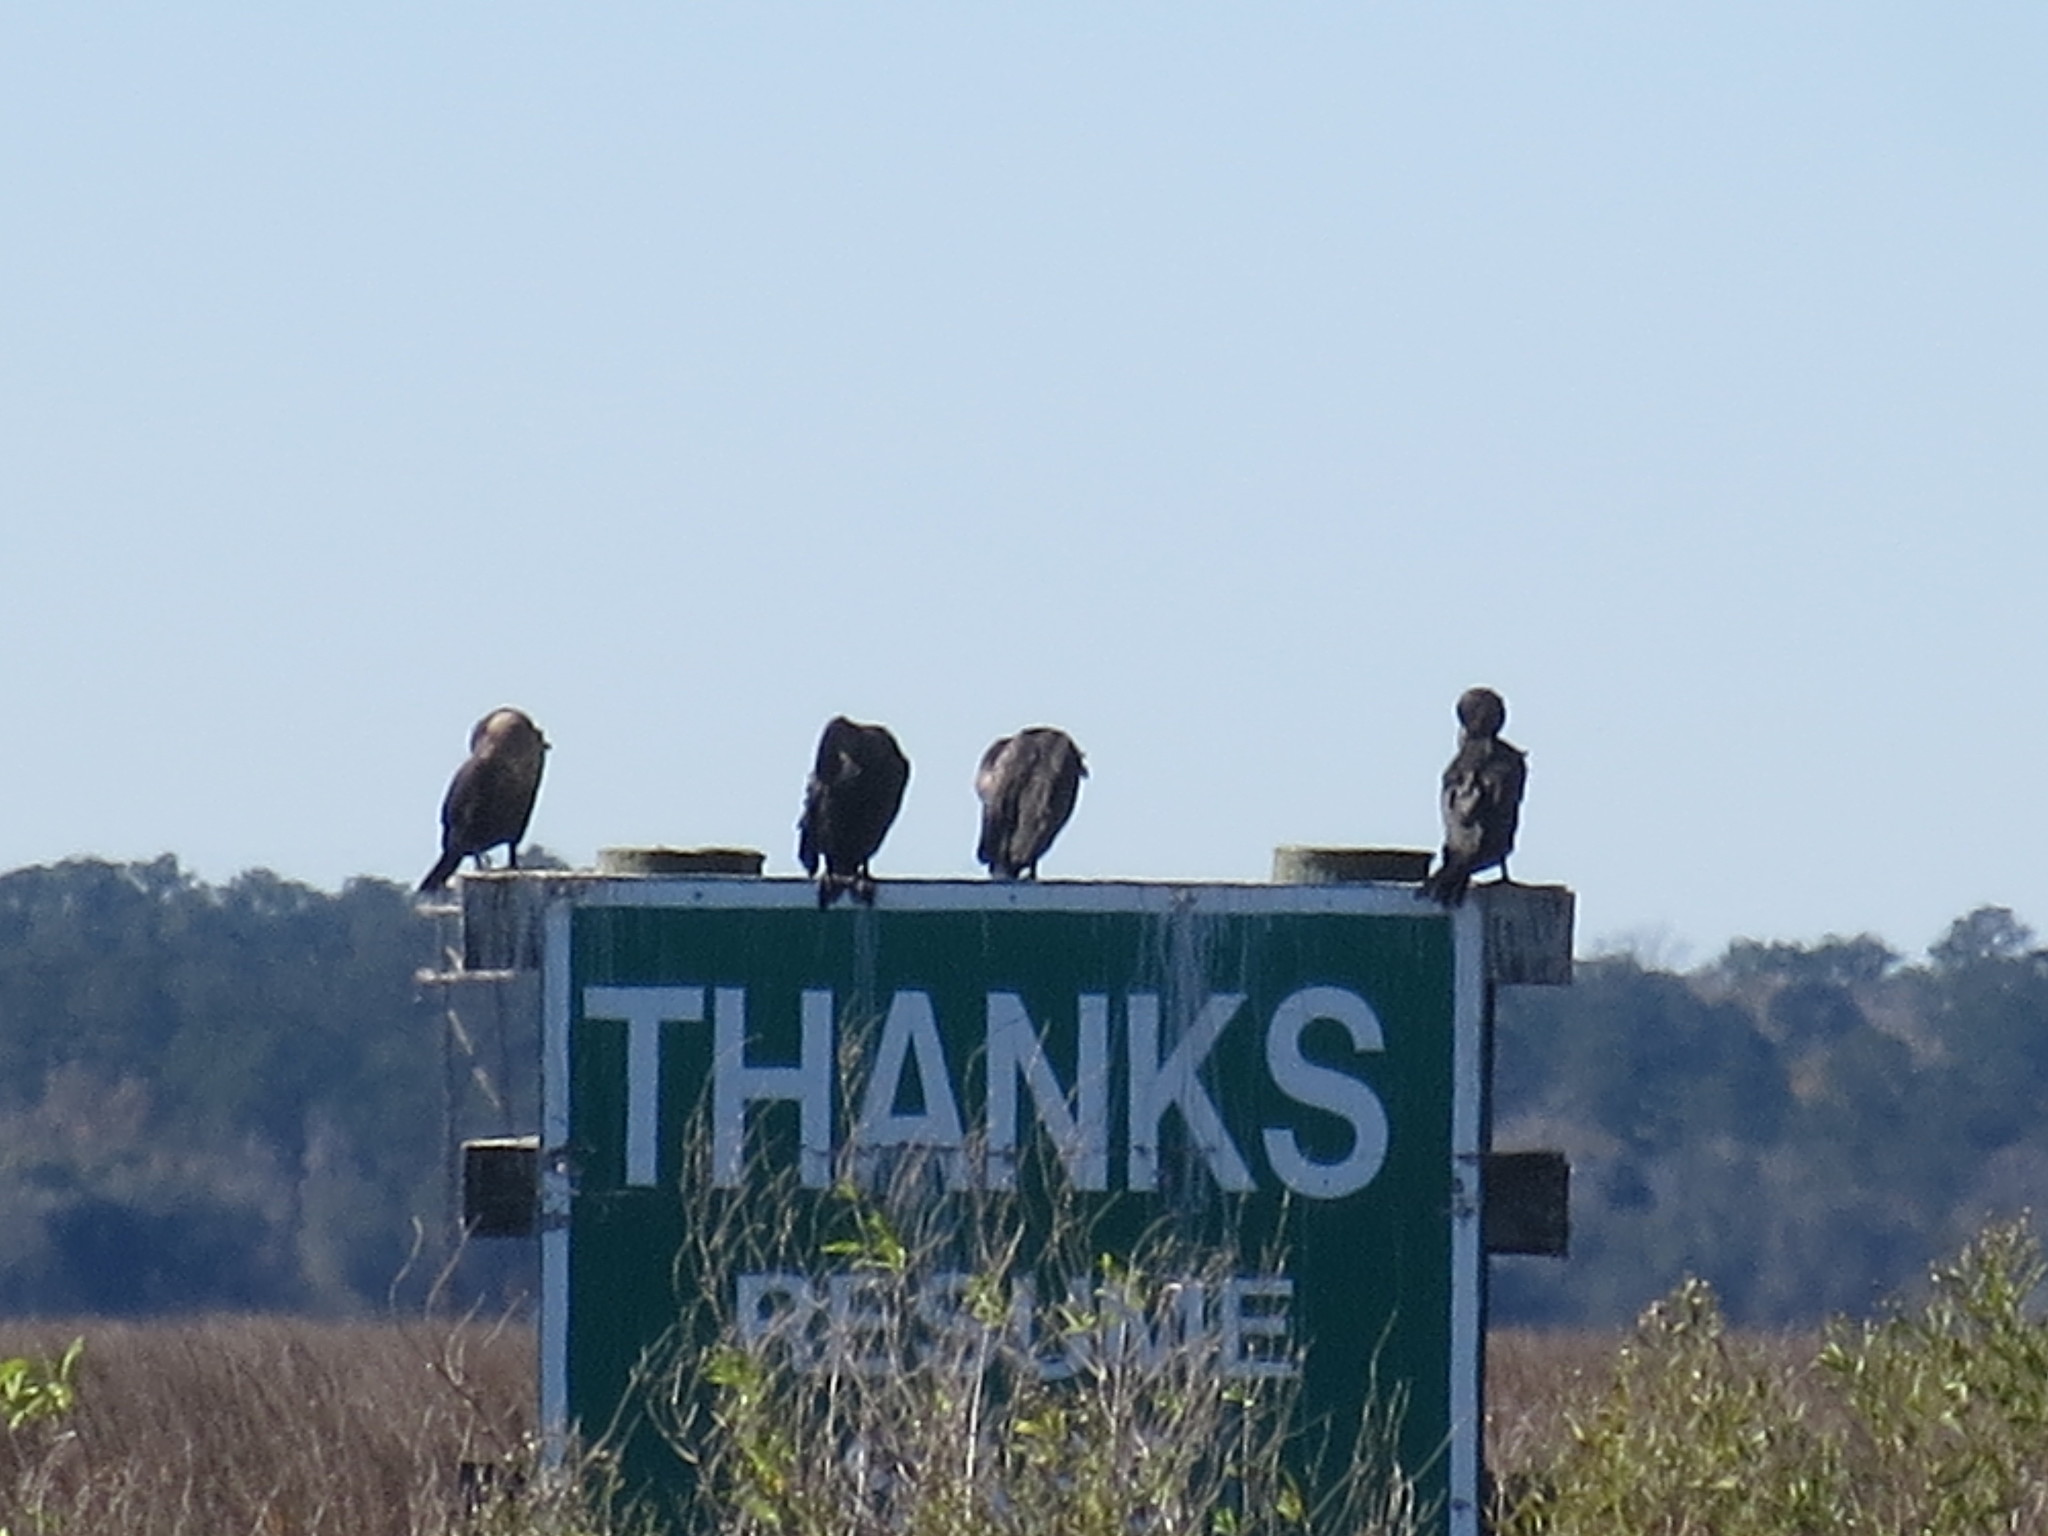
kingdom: Animalia
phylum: Chordata
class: Aves
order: Suliformes
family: Phalacrocoracidae
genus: Phalacrocorax
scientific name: Phalacrocorax auritus
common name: Double-crested cormorant
